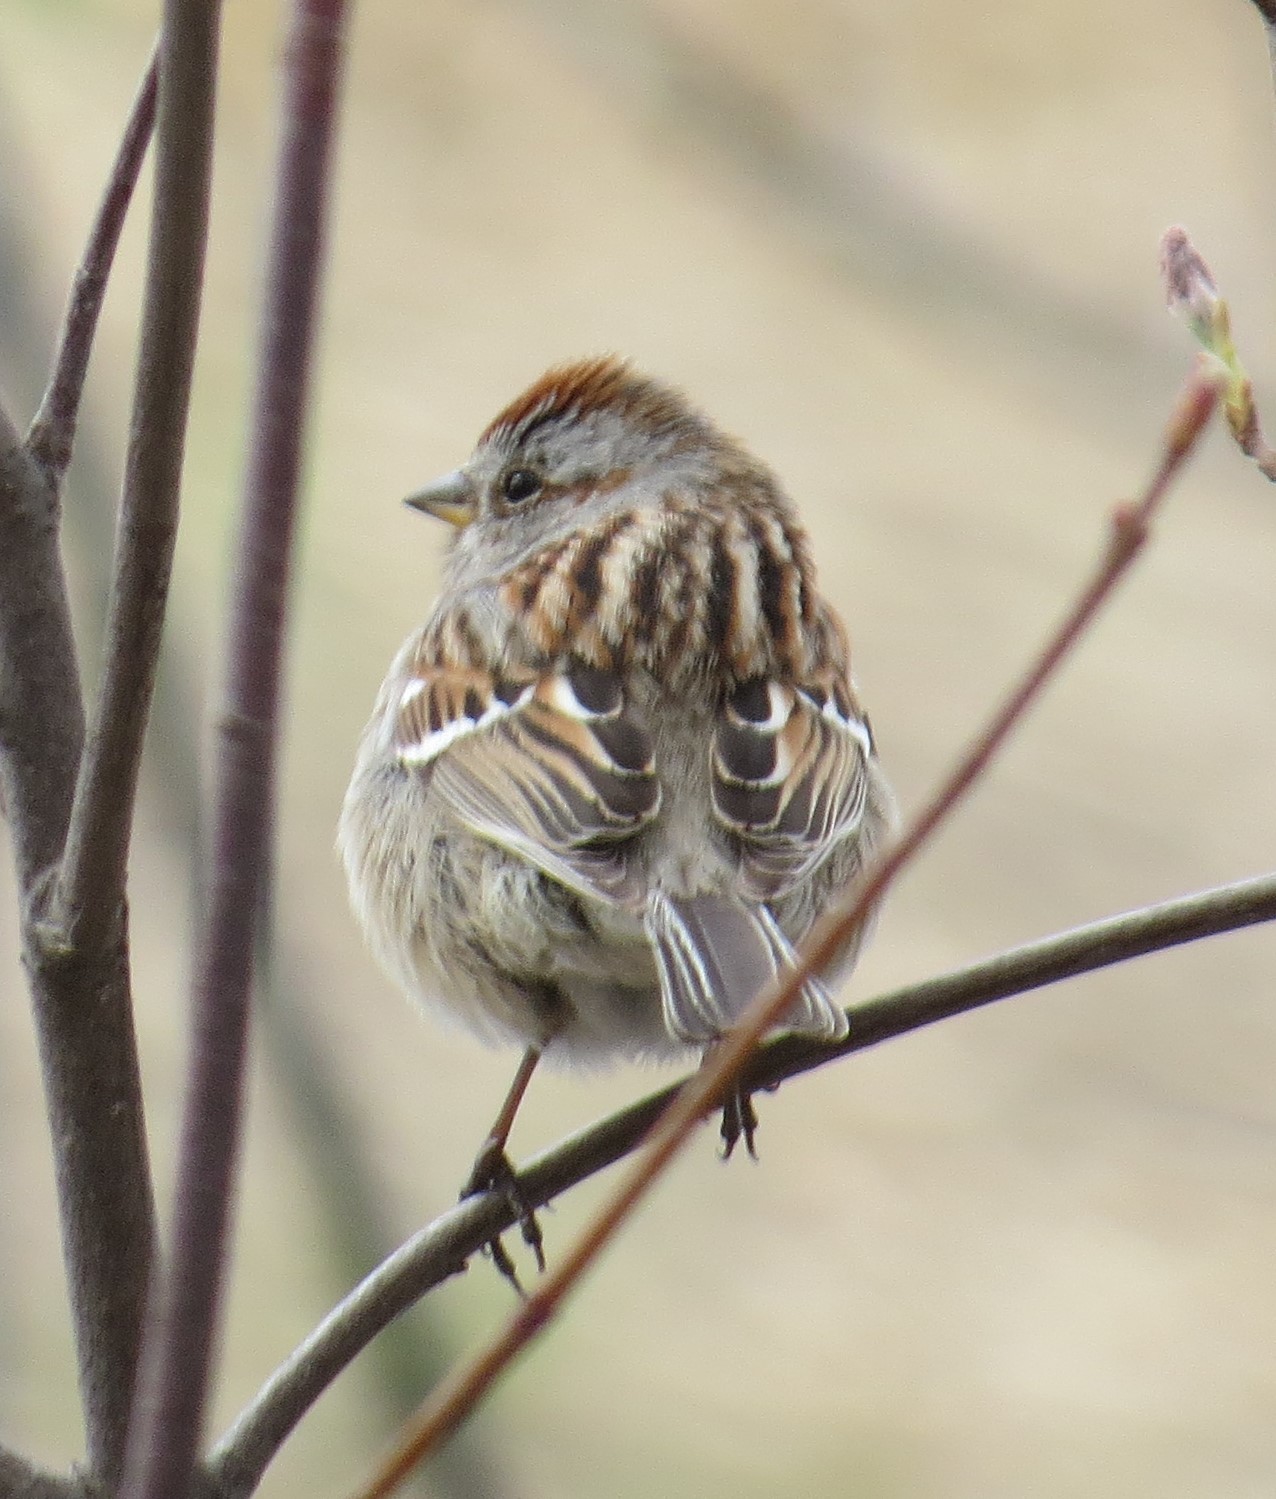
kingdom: Animalia
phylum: Chordata
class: Aves
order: Passeriformes
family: Passerellidae
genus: Spizelloides
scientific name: Spizelloides arborea
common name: American tree sparrow
